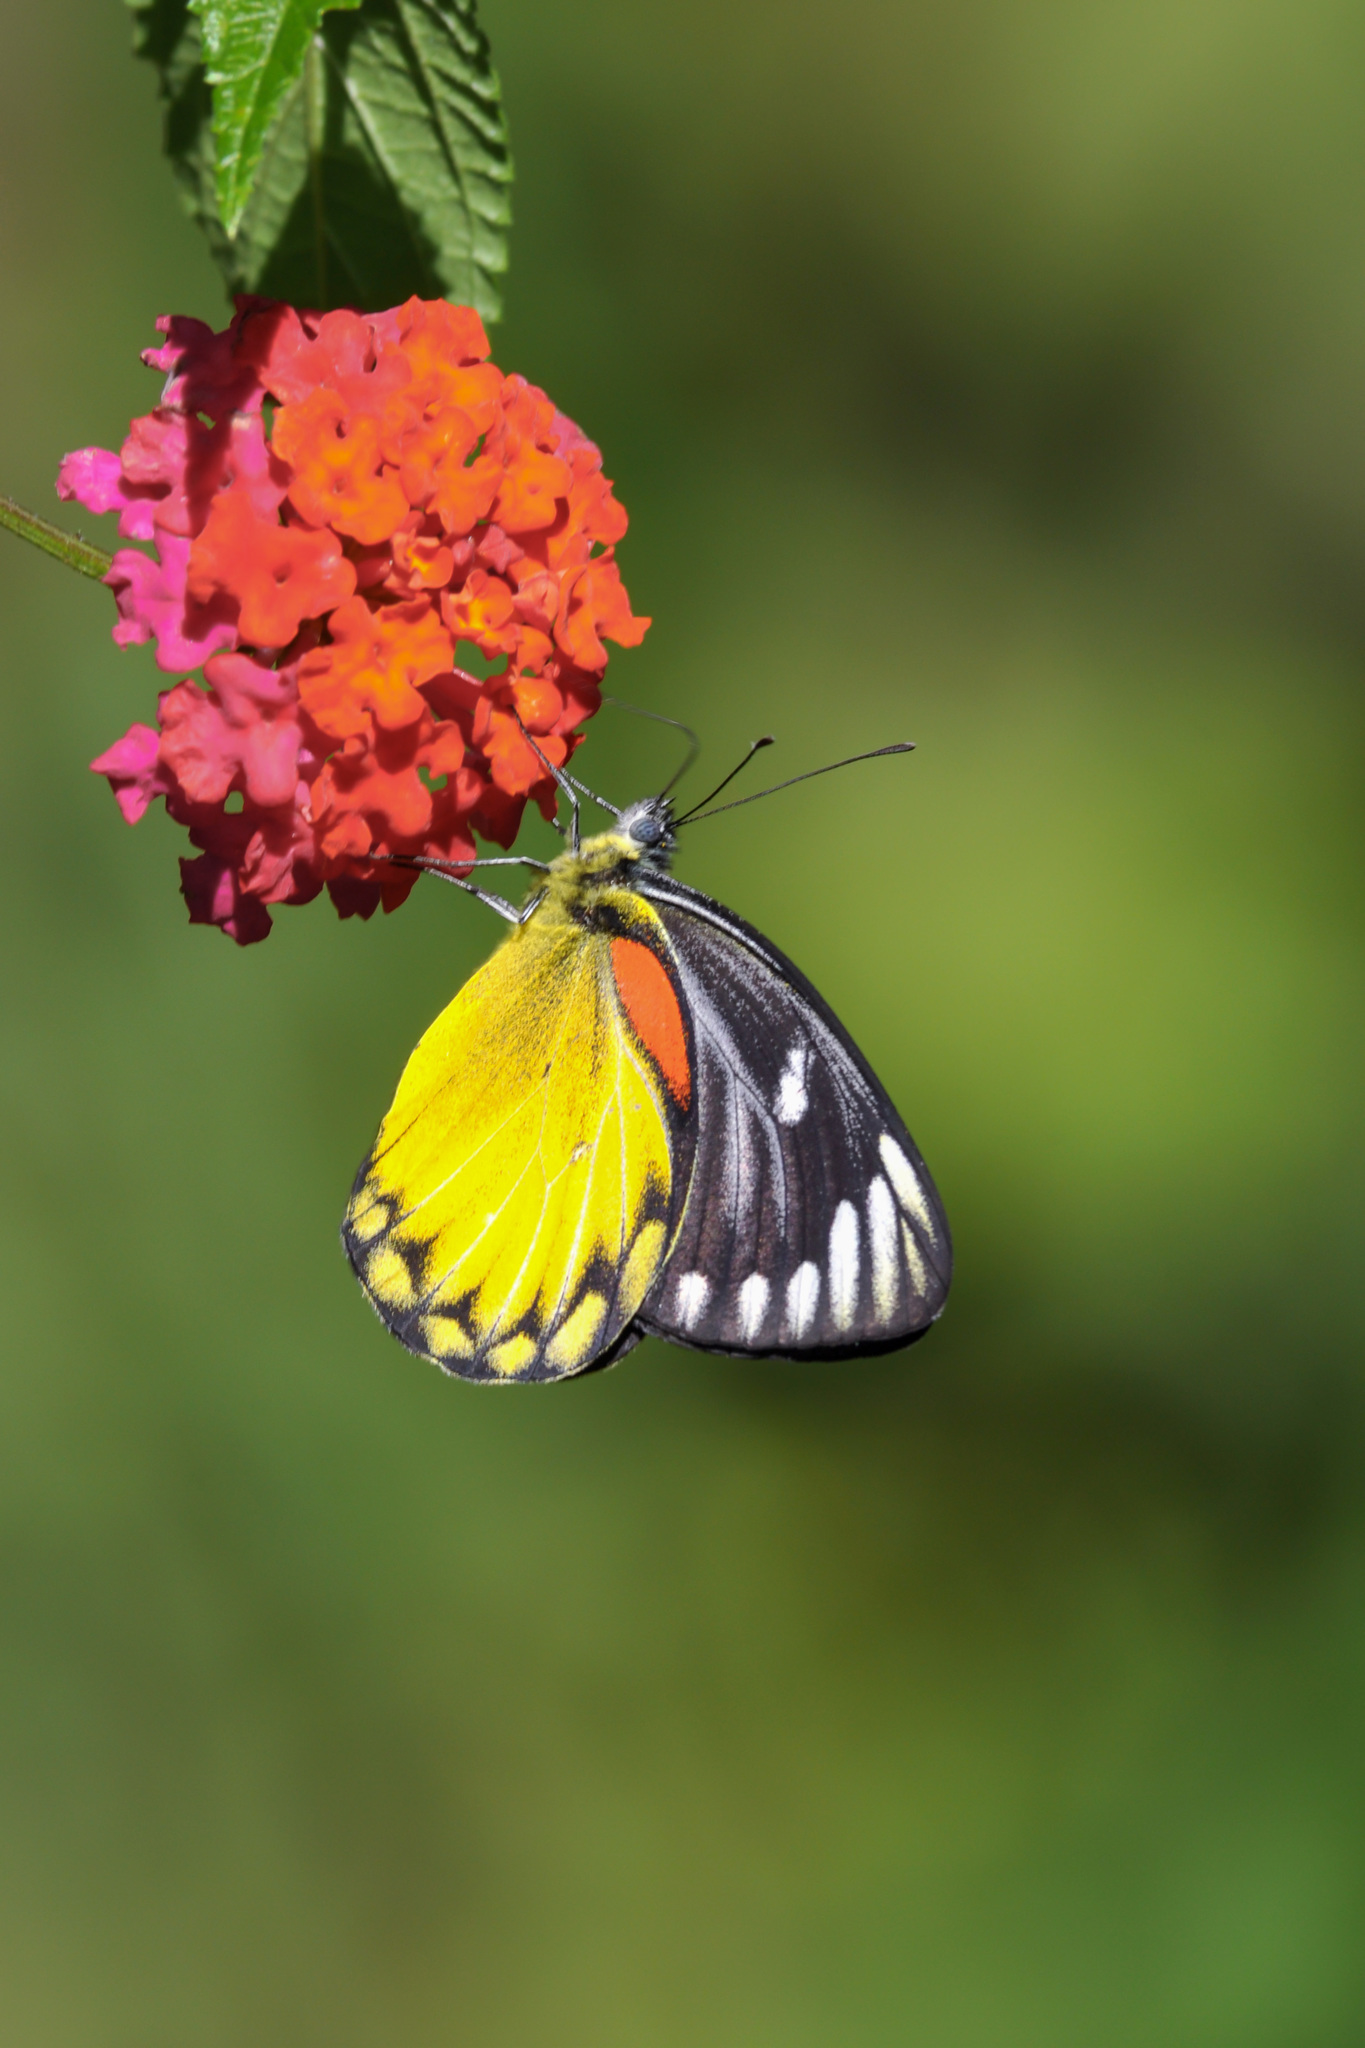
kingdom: Animalia
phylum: Arthropoda
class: Insecta
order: Lepidoptera
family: Pieridae
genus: Delias
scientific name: Delias descombesi
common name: Red-spot jezebel
